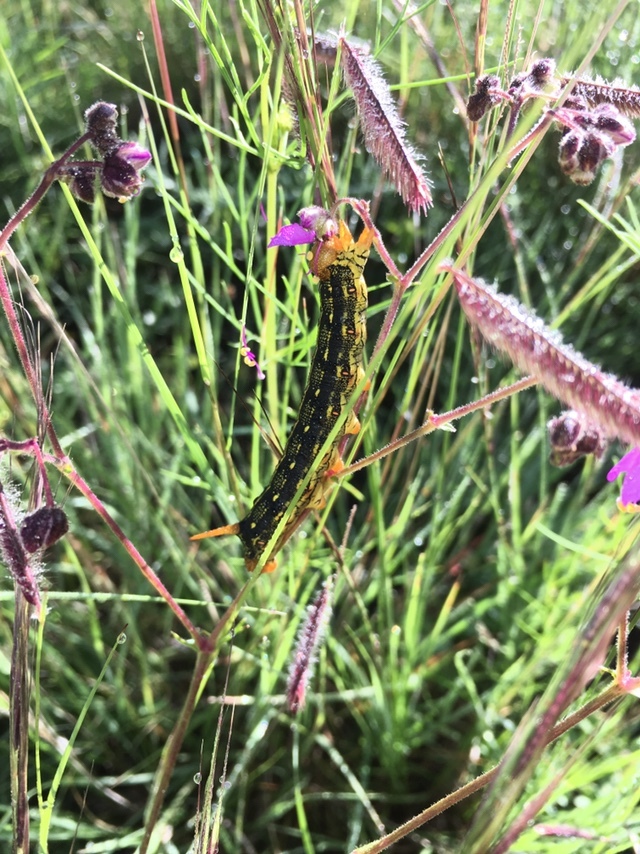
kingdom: Animalia
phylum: Arthropoda
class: Insecta
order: Lepidoptera
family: Sphingidae
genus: Hyles
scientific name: Hyles lineata
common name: White-lined sphinx
